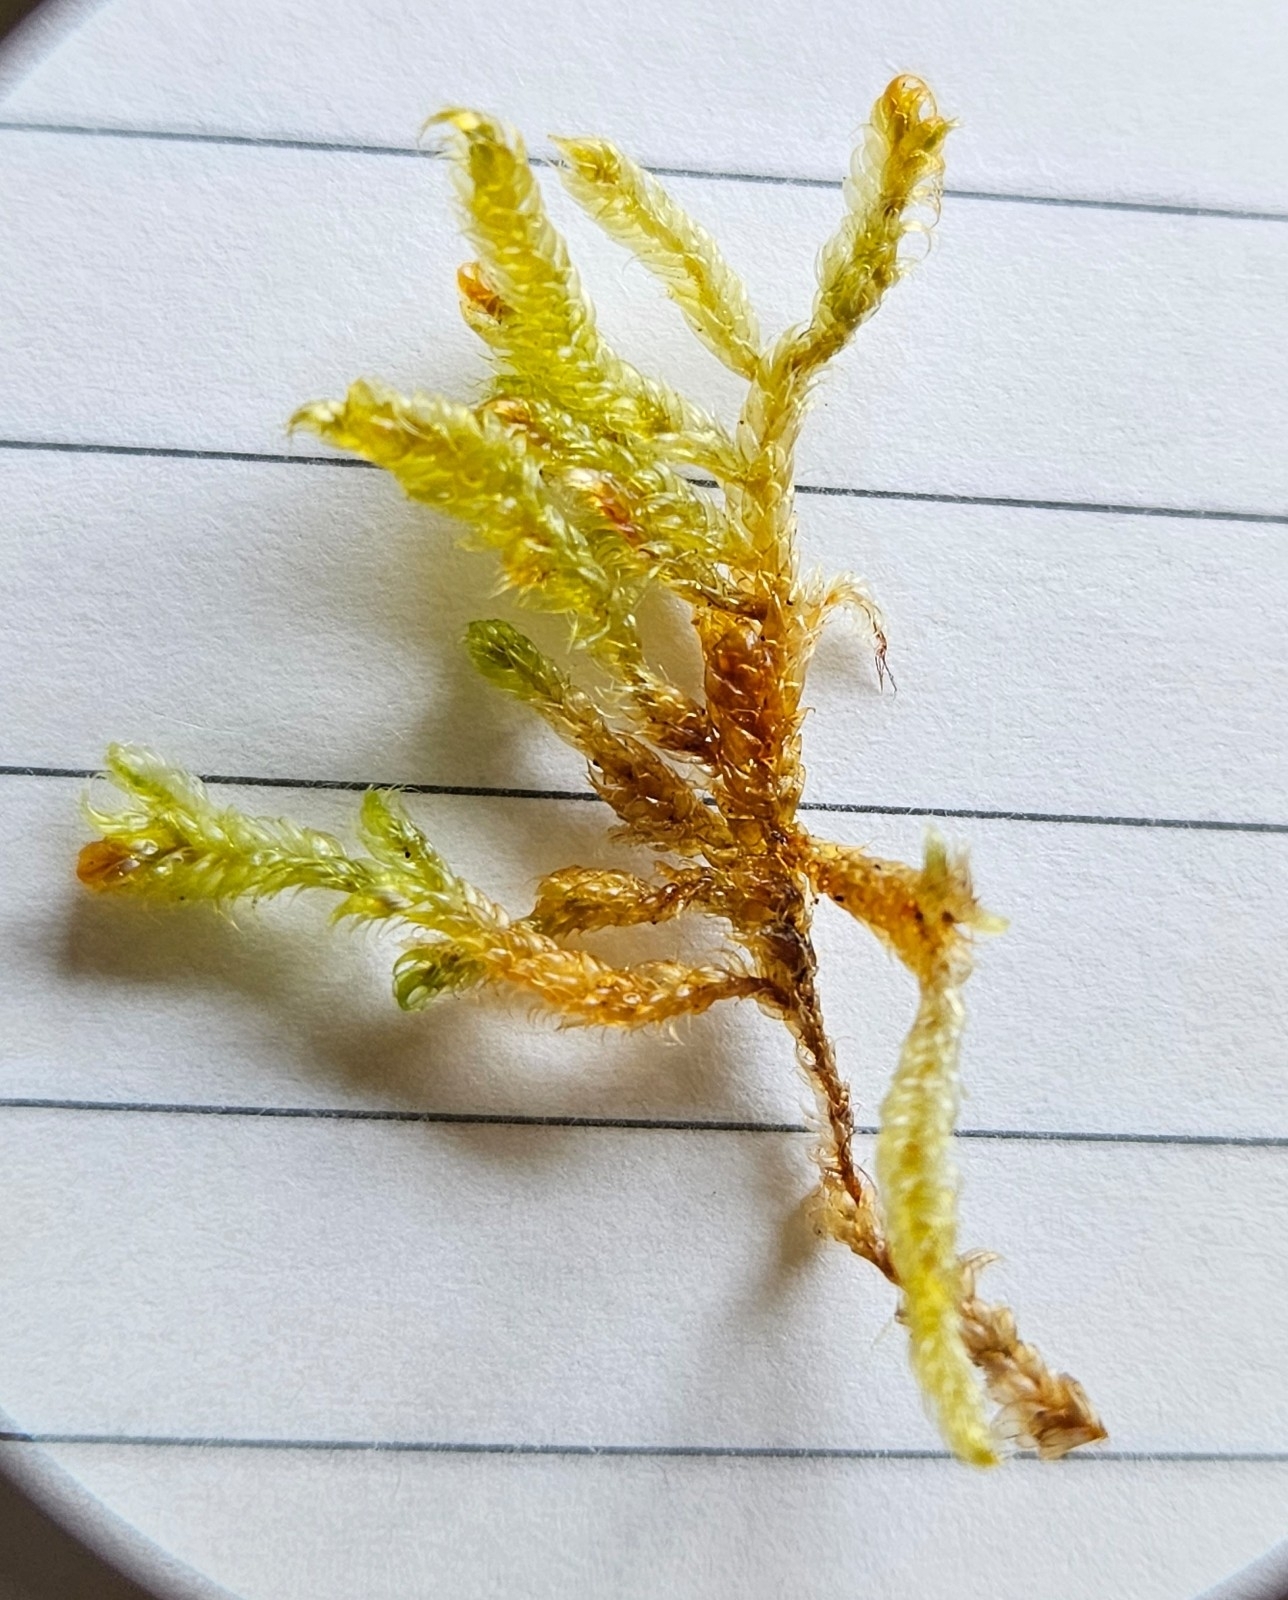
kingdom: Plantae
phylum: Bryophyta
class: Bryopsida
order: Hypnales
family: Hypnaceae
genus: Hypnum
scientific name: Hypnum cupressiforme
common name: Cypress-leaved plait-moss
